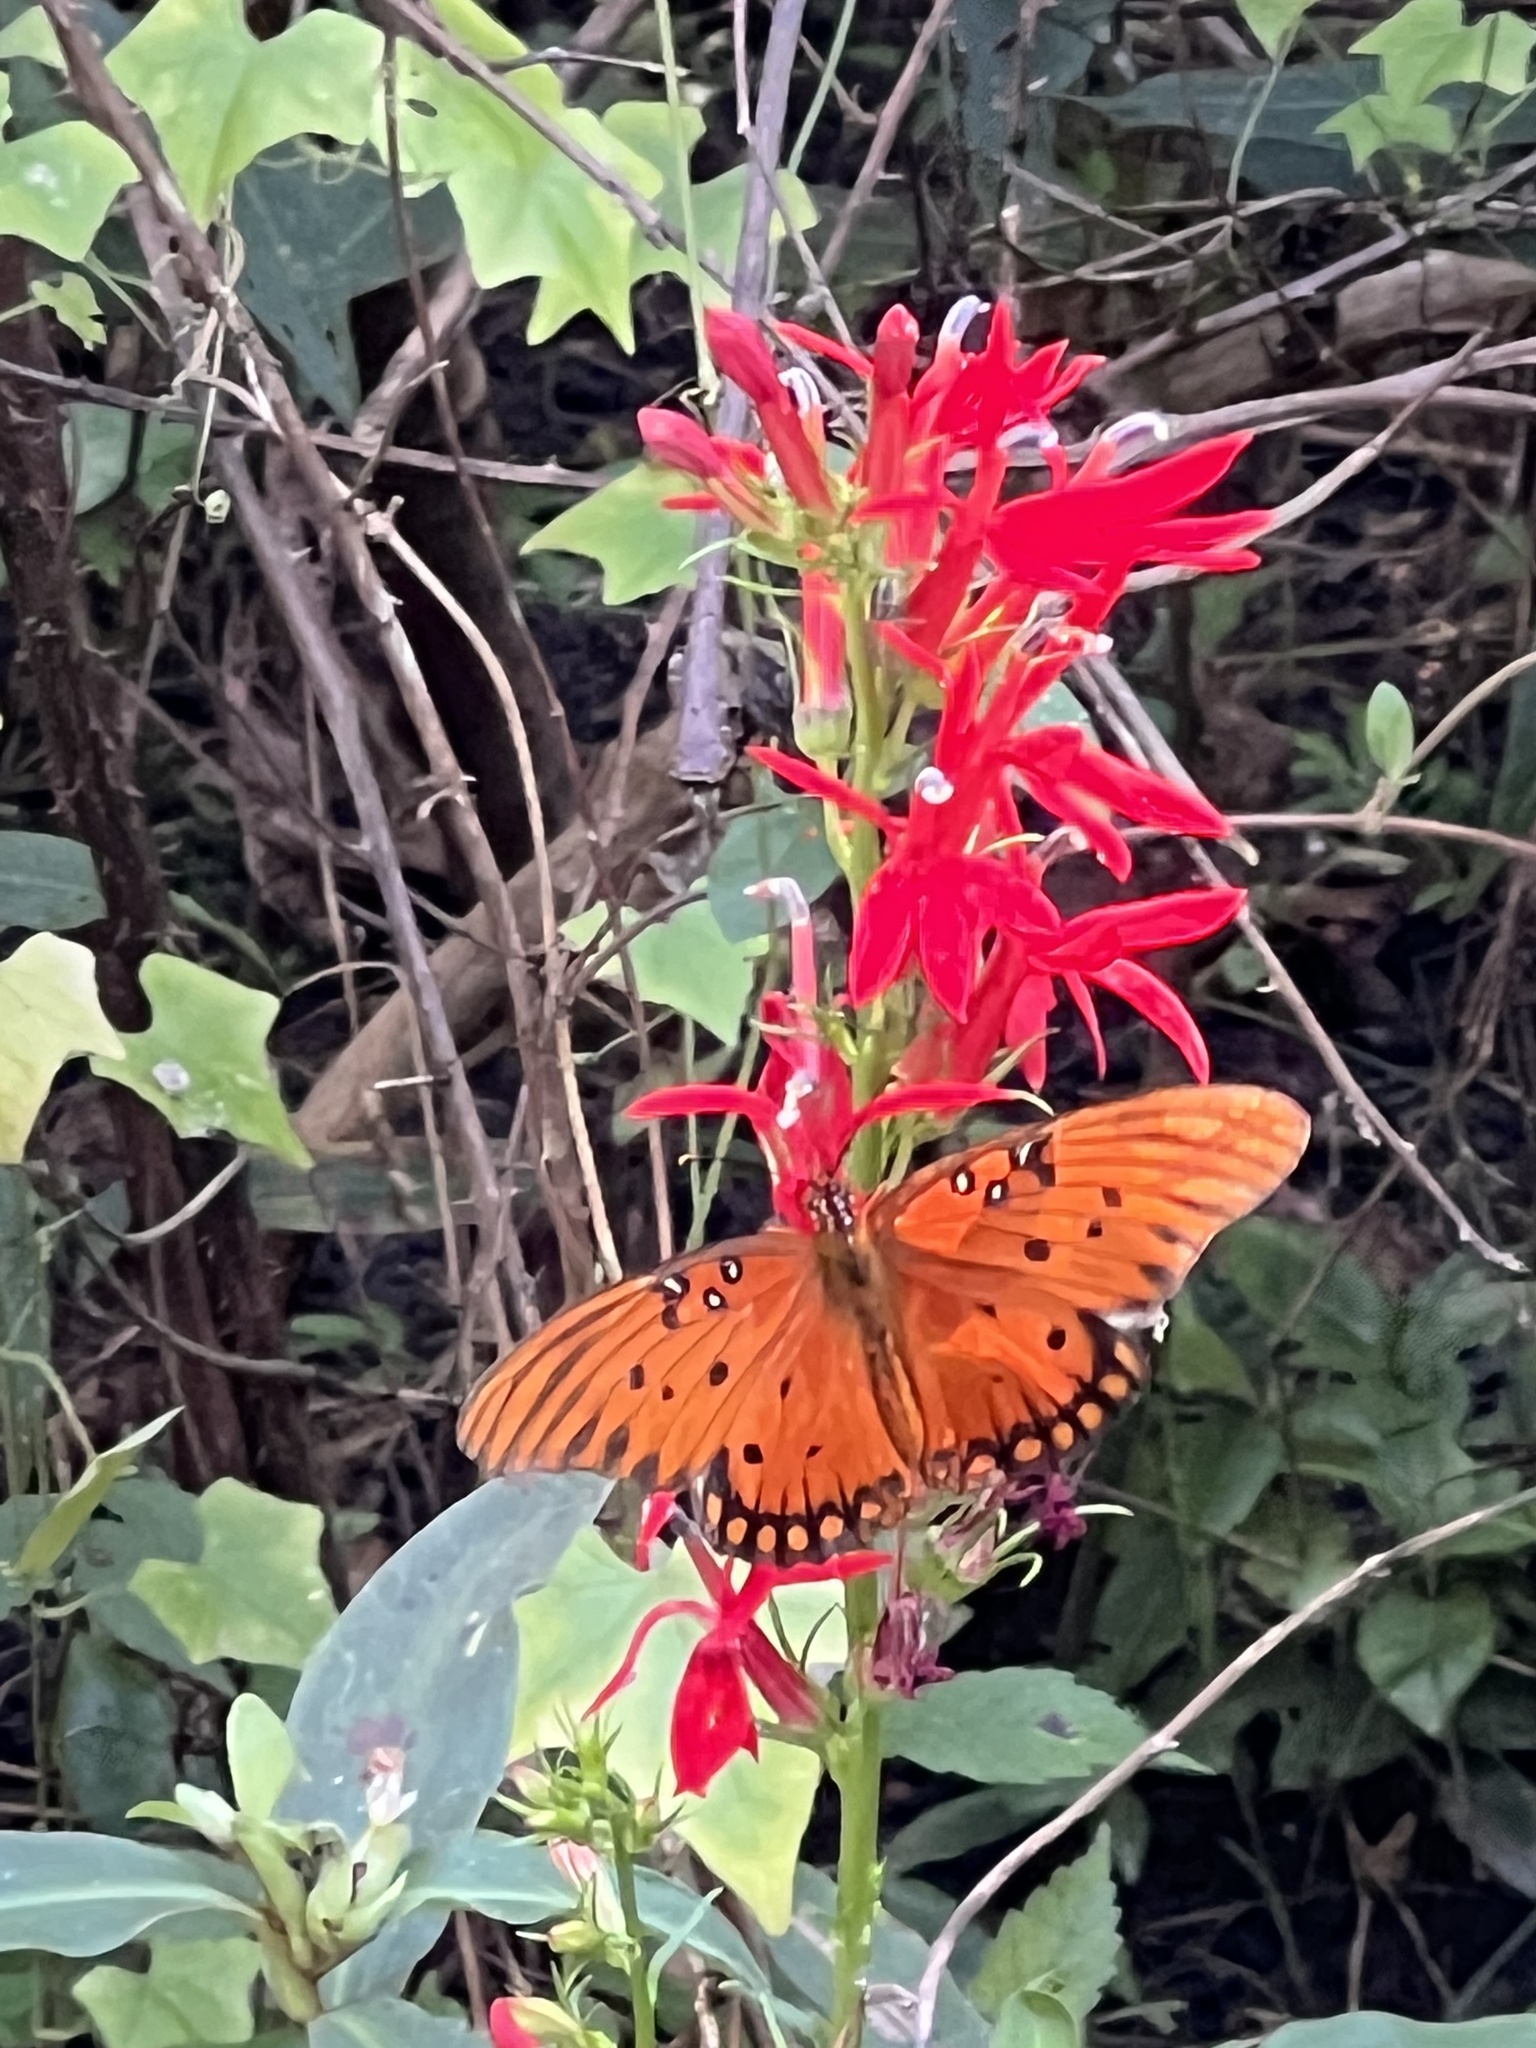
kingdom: Animalia
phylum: Arthropoda
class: Insecta
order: Lepidoptera
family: Nymphalidae
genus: Dione
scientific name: Dione vanillae
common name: Gulf fritillary
